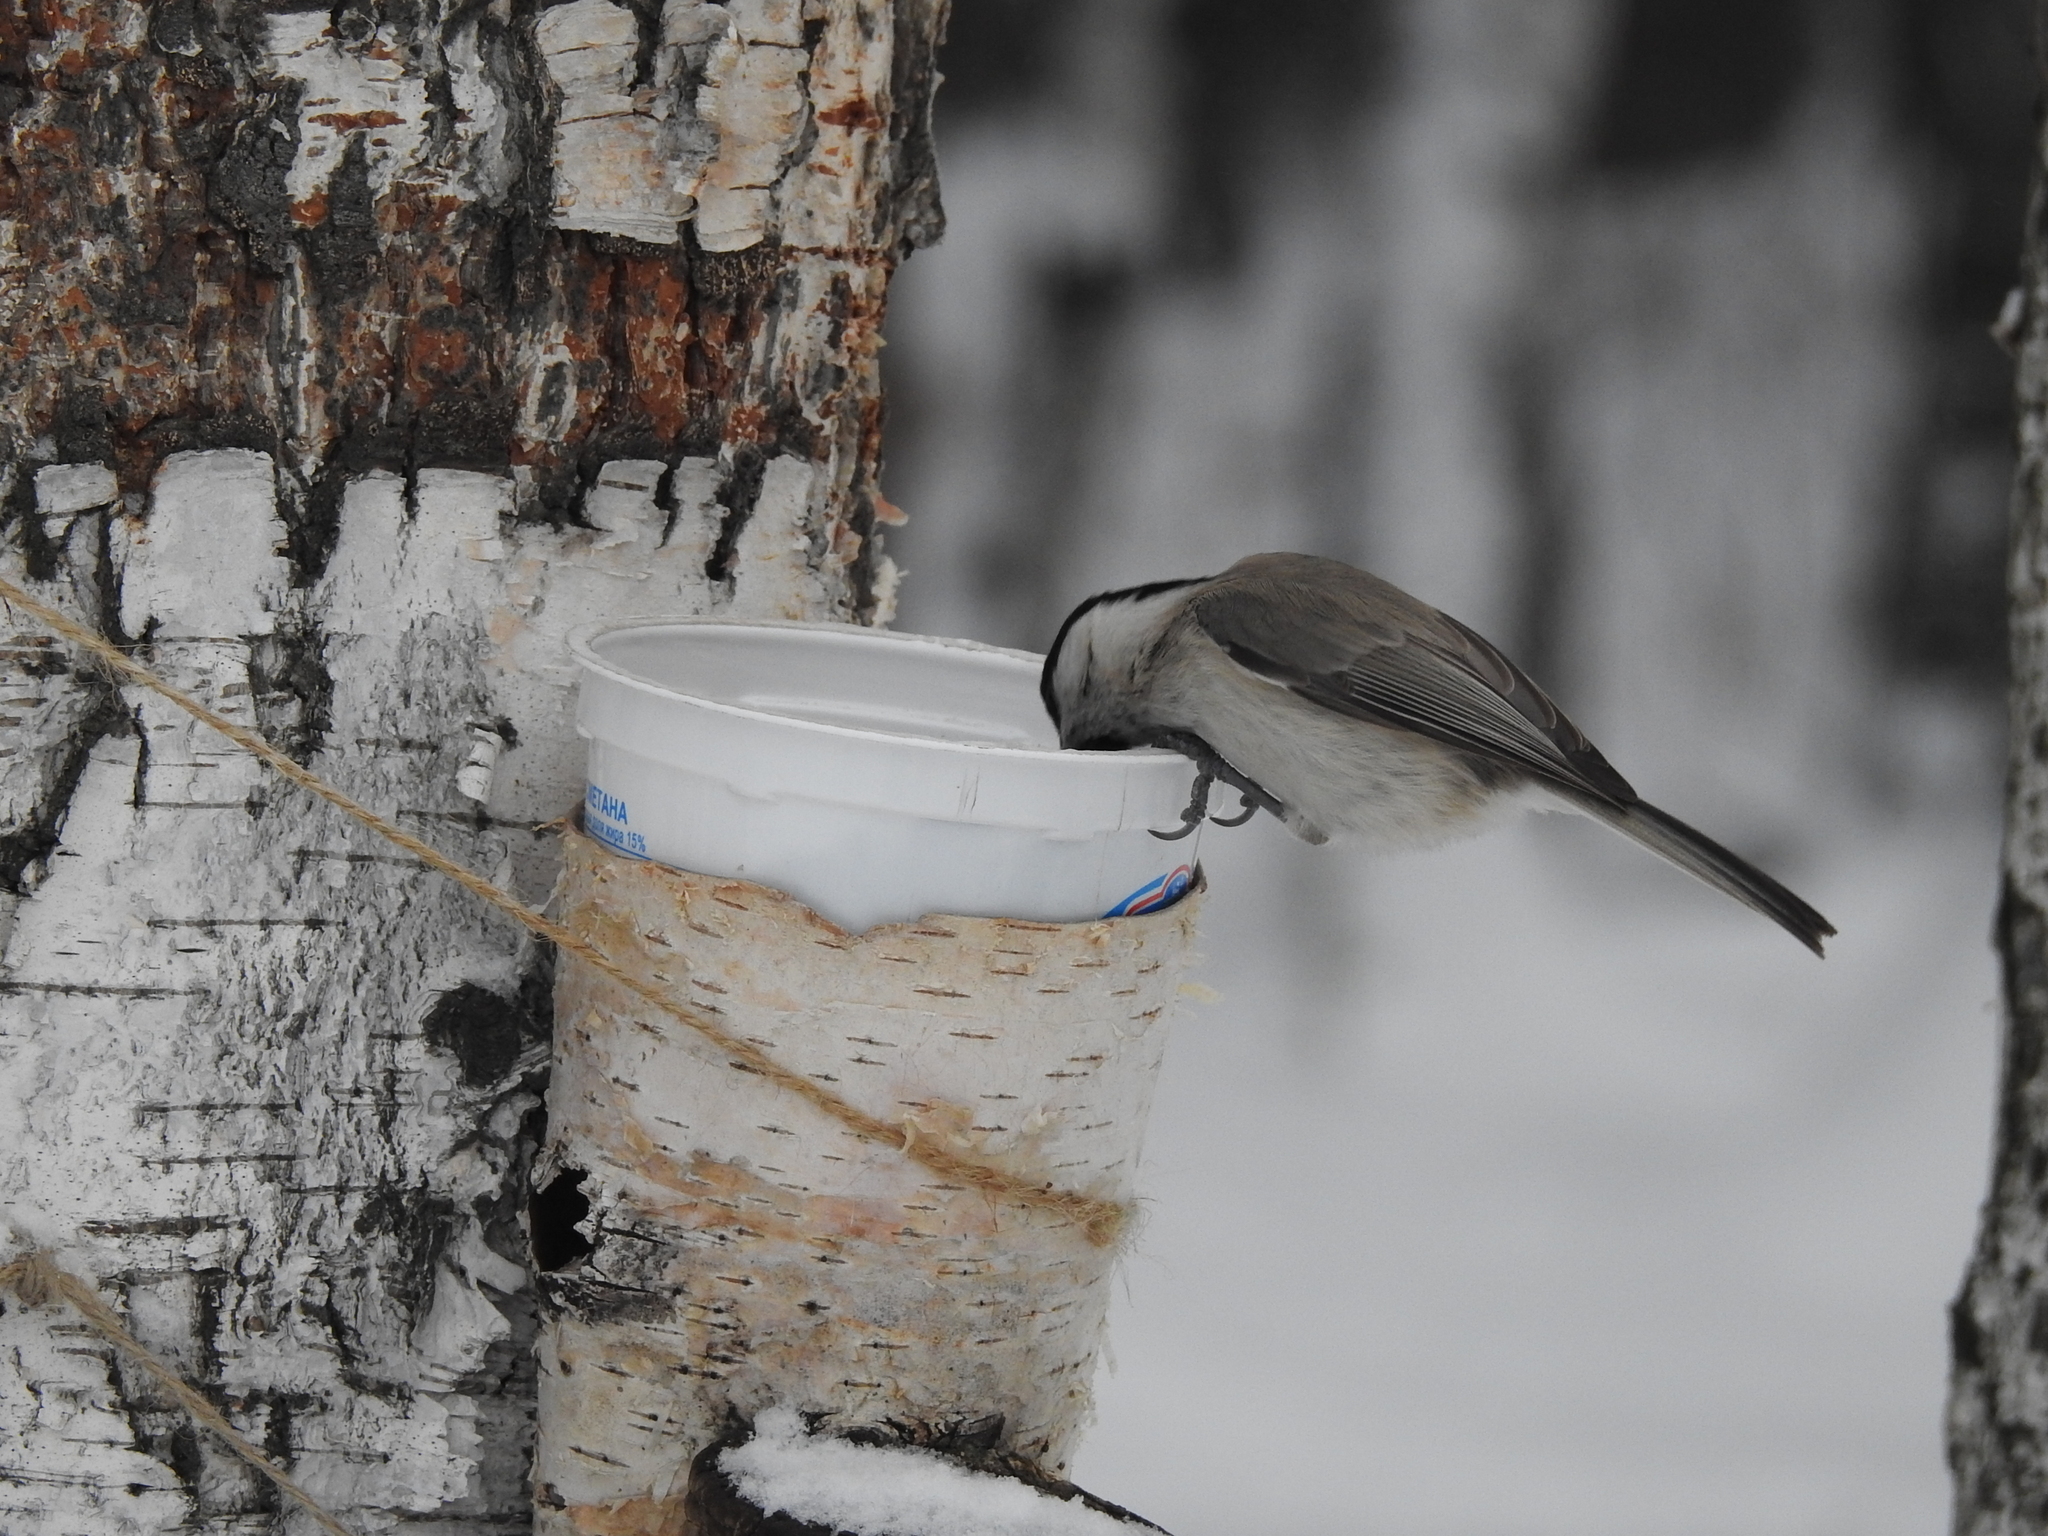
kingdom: Animalia
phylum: Chordata
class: Aves
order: Passeriformes
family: Paridae
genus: Poecile
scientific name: Poecile palustris
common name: Marsh tit
